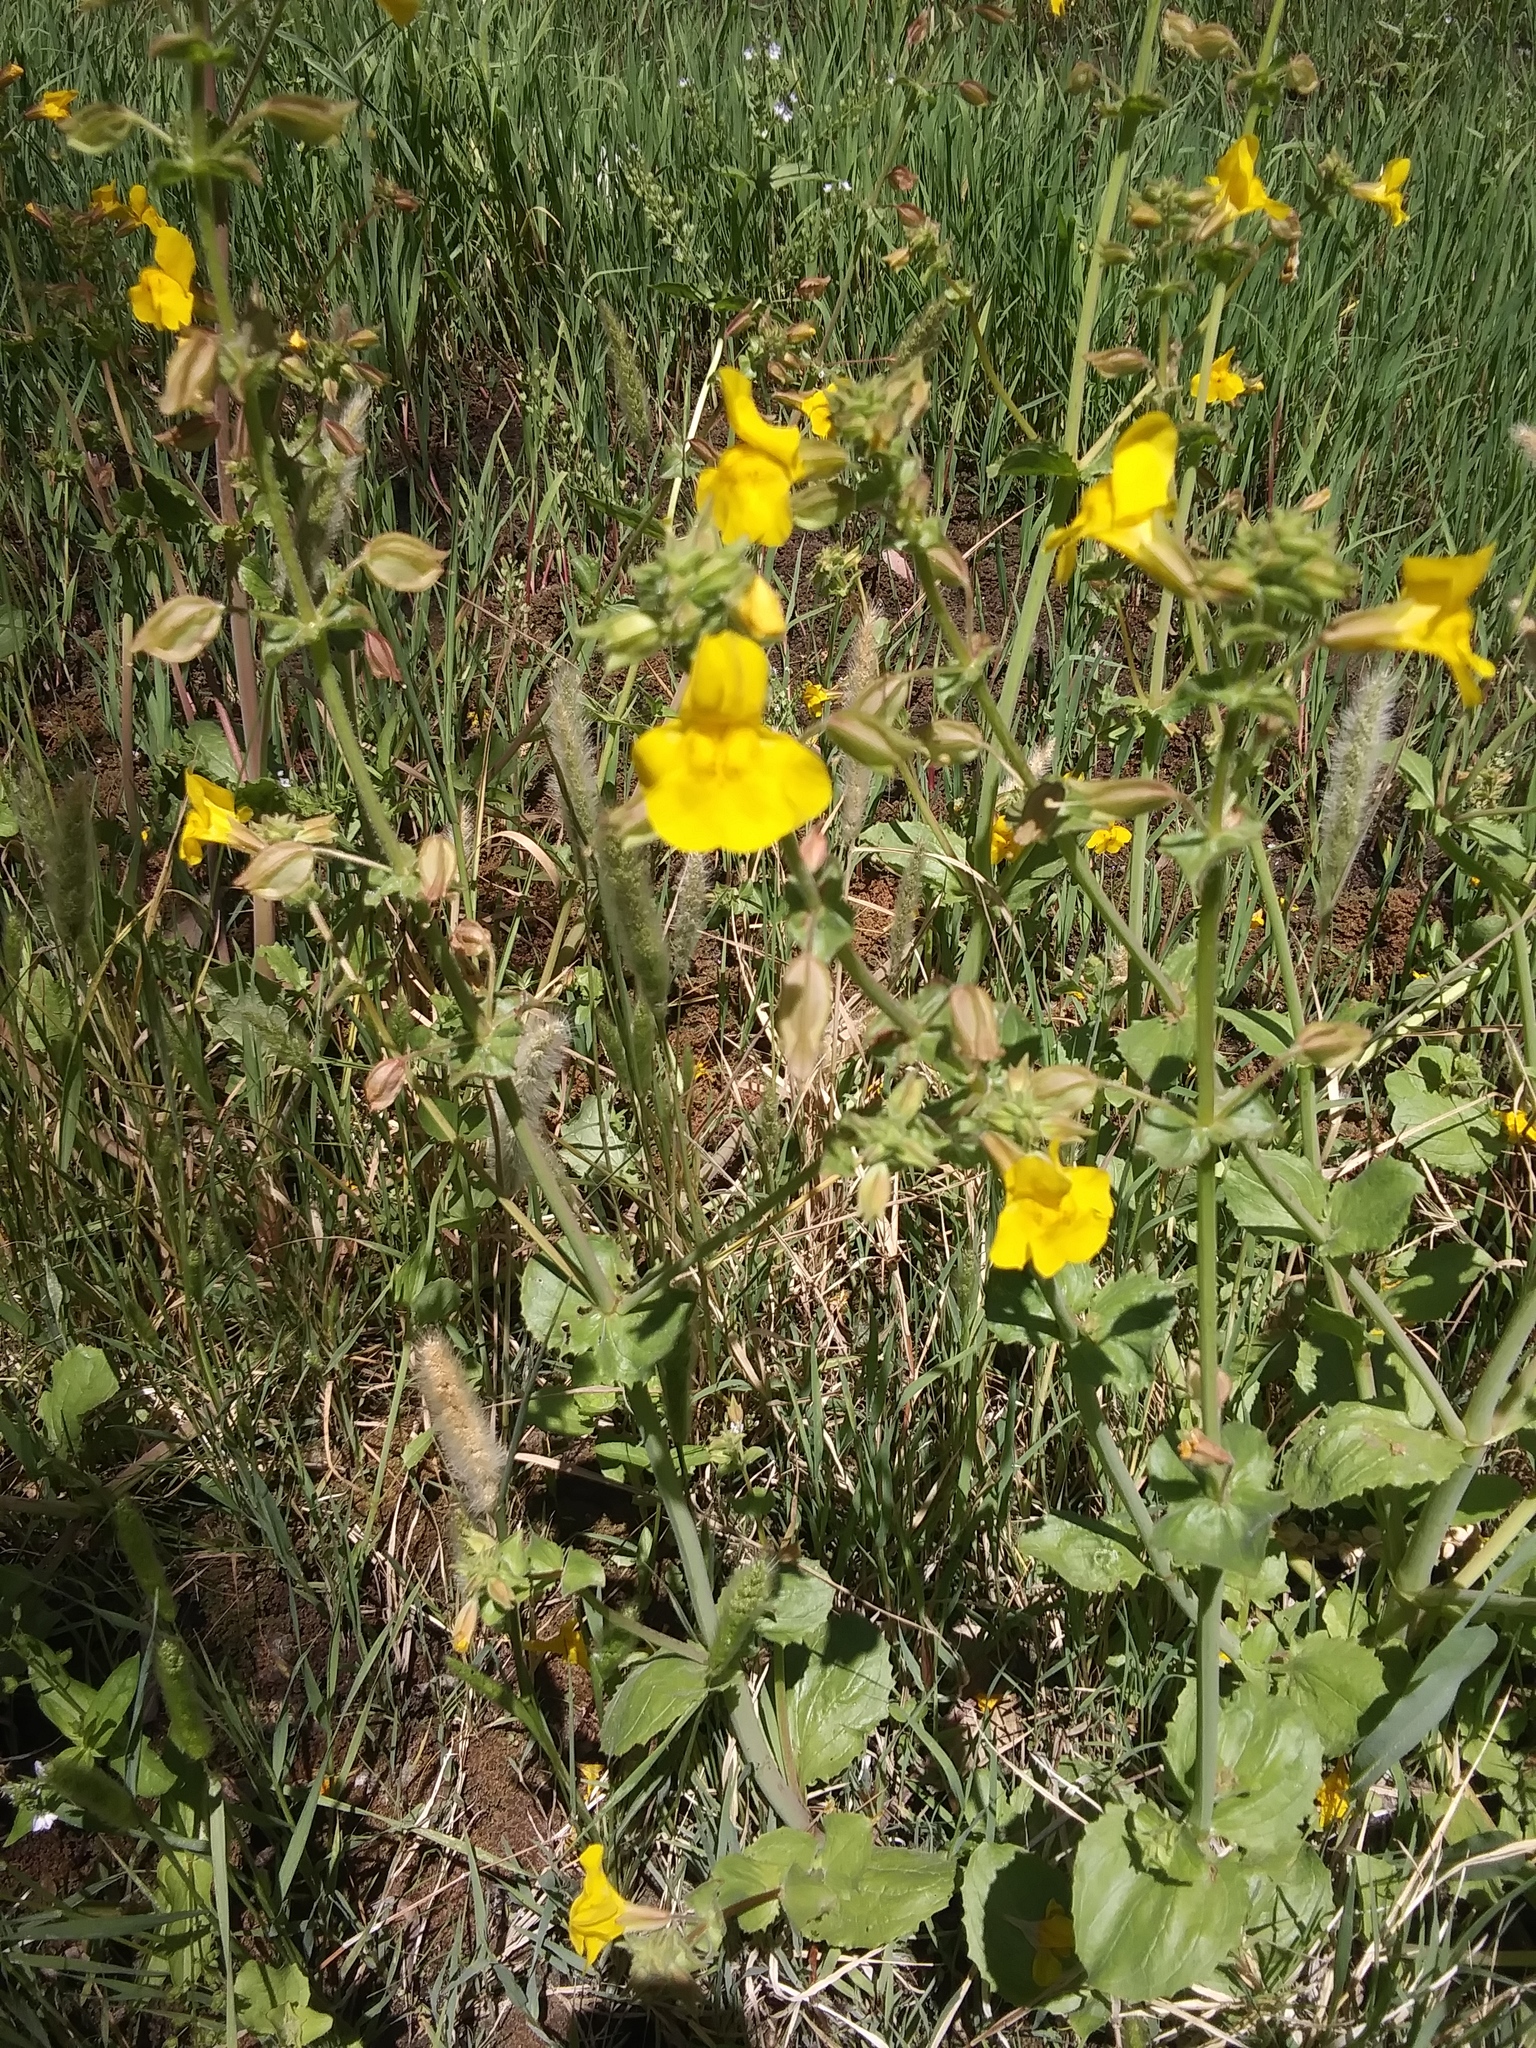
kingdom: Plantae
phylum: Tracheophyta
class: Magnoliopsida
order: Lamiales
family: Phrymaceae
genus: Erythranthe
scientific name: Erythranthe guttata
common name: Monkeyflower
